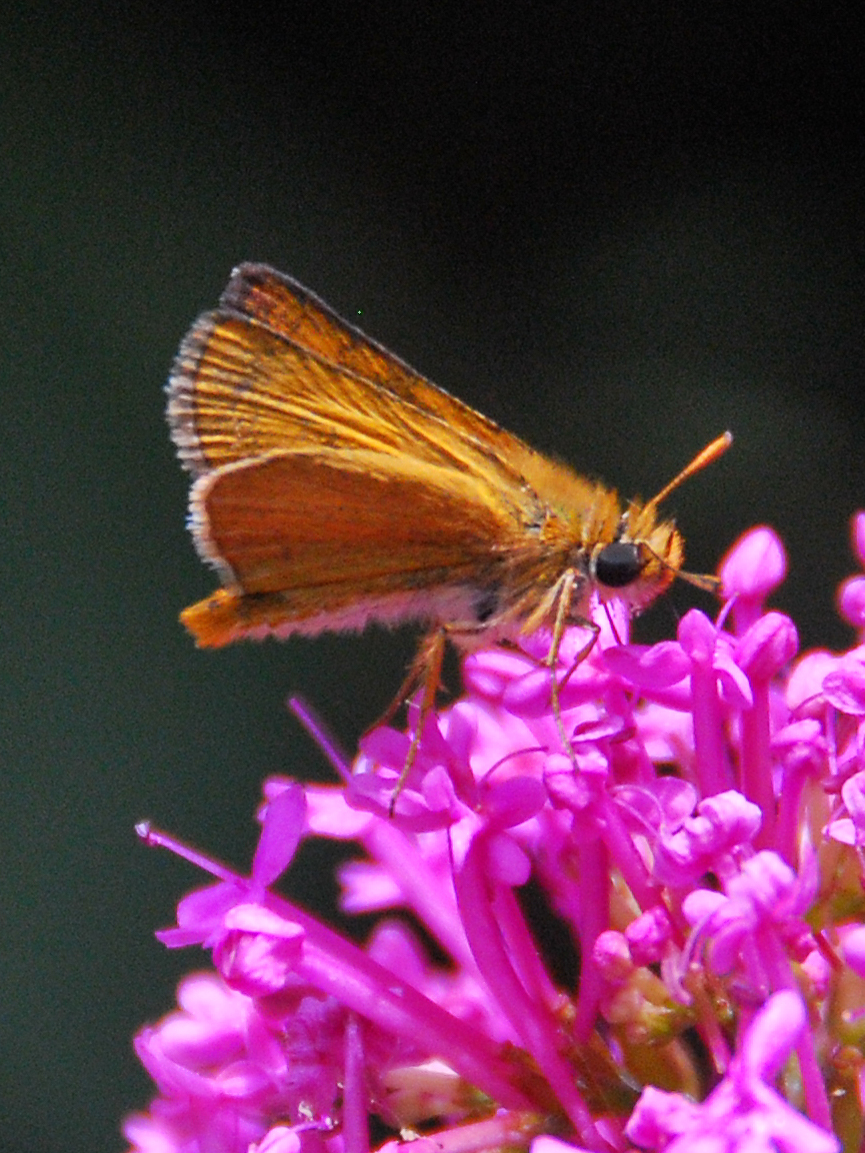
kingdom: Animalia
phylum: Arthropoda
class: Insecta
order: Lepidoptera
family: Hesperiidae
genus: Thymelicus
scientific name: Thymelicus acteon
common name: Lulworth skipper
